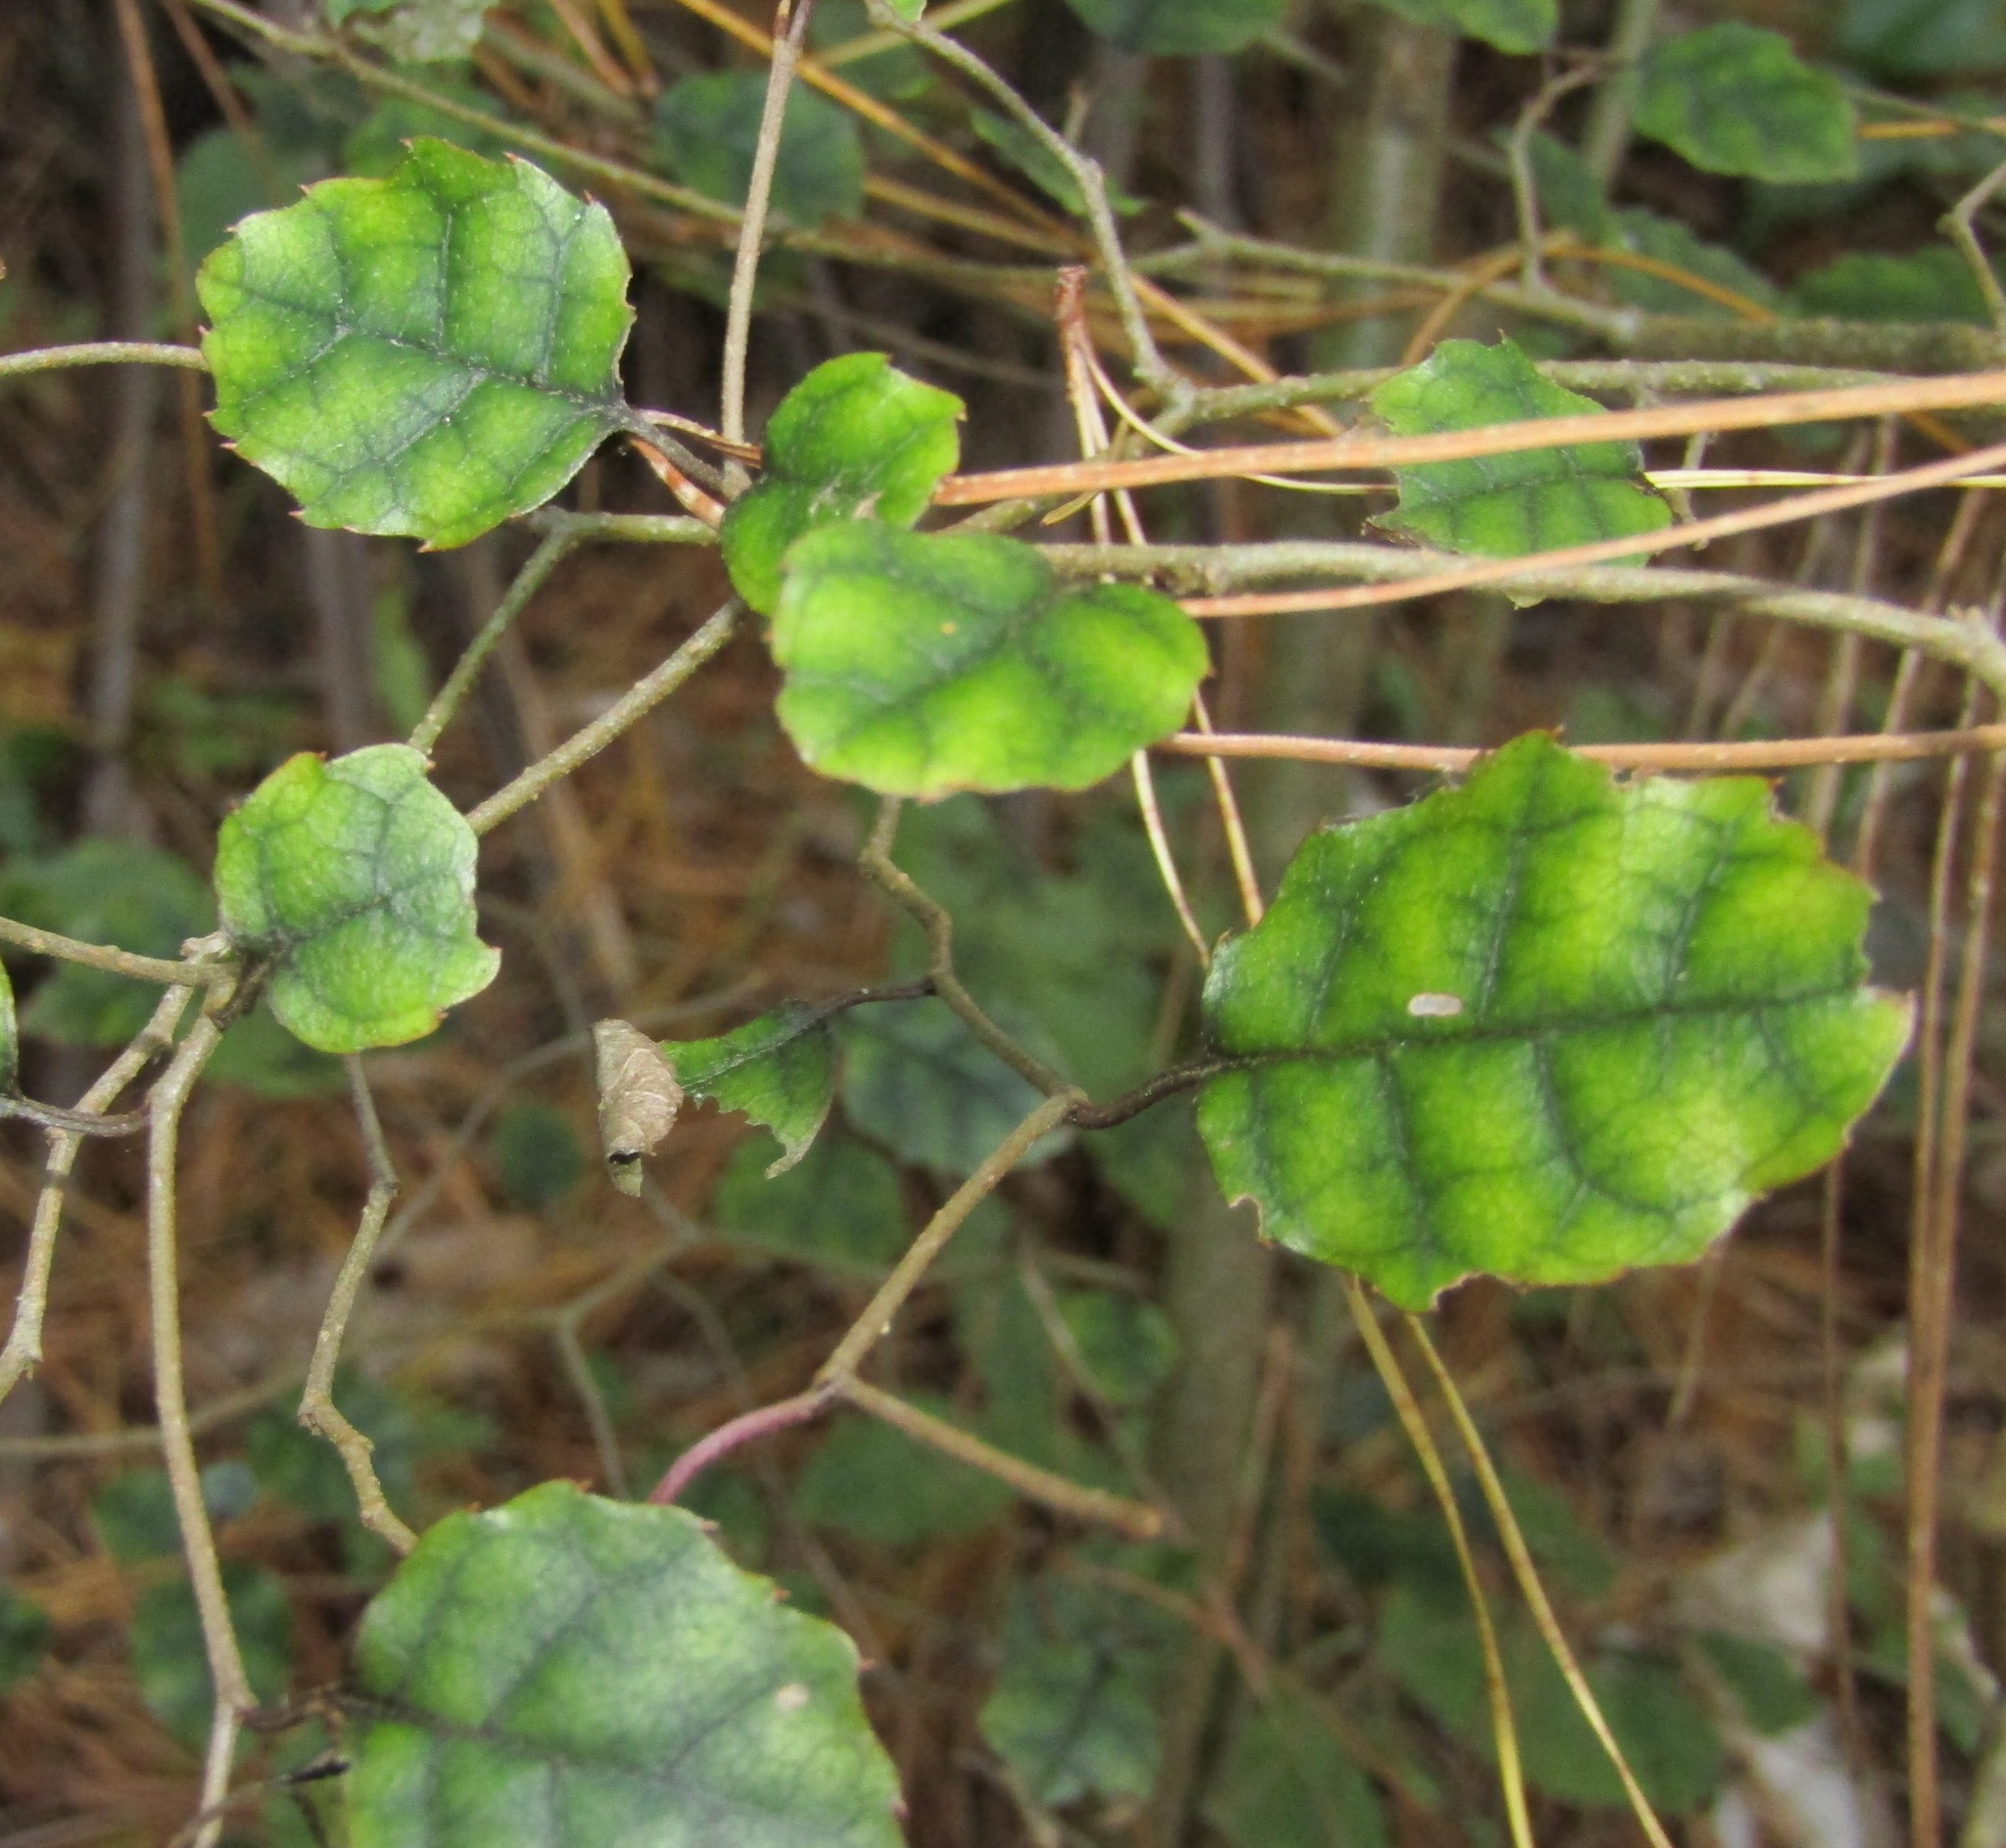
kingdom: Plantae
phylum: Tracheophyta
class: Magnoliopsida
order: Asterales
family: Rousseaceae
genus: Carpodetus
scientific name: Carpodetus serratus
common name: White mapau
